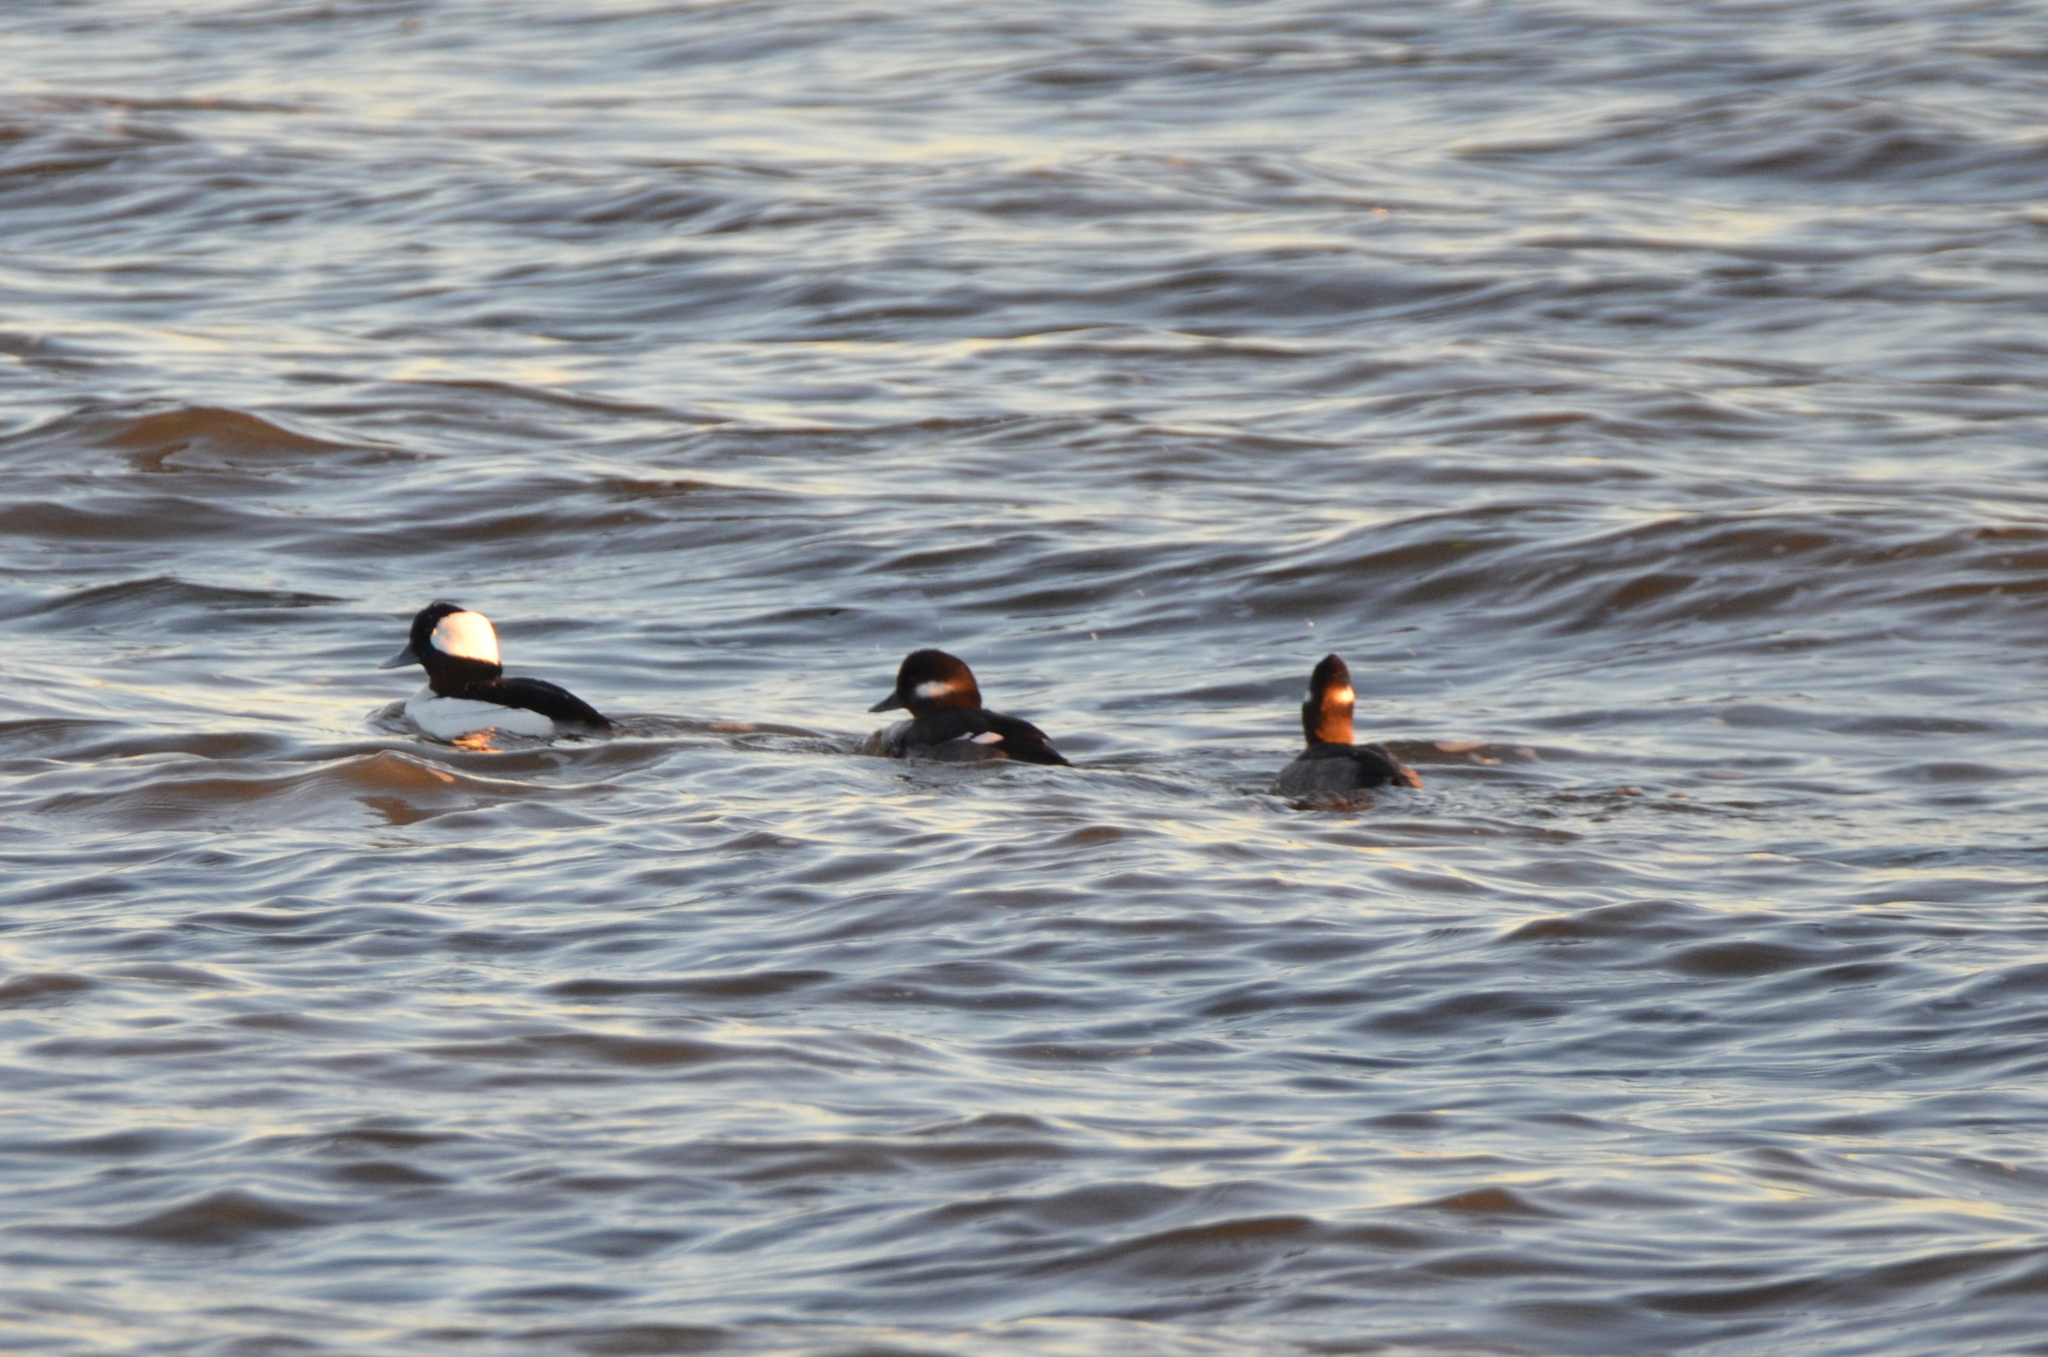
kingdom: Animalia
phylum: Chordata
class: Aves
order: Anseriformes
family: Anatidae
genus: Bucephala
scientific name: Bucephala albeola
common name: Bufflehead
